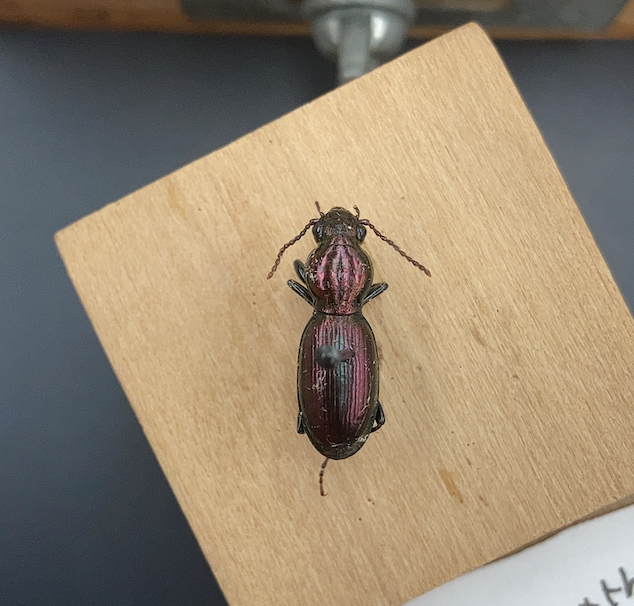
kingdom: Animalia
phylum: Arthropoda
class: Insecta
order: Coleoptera
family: Carabidae
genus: Zacotus
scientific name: Zacotus matthewsii
